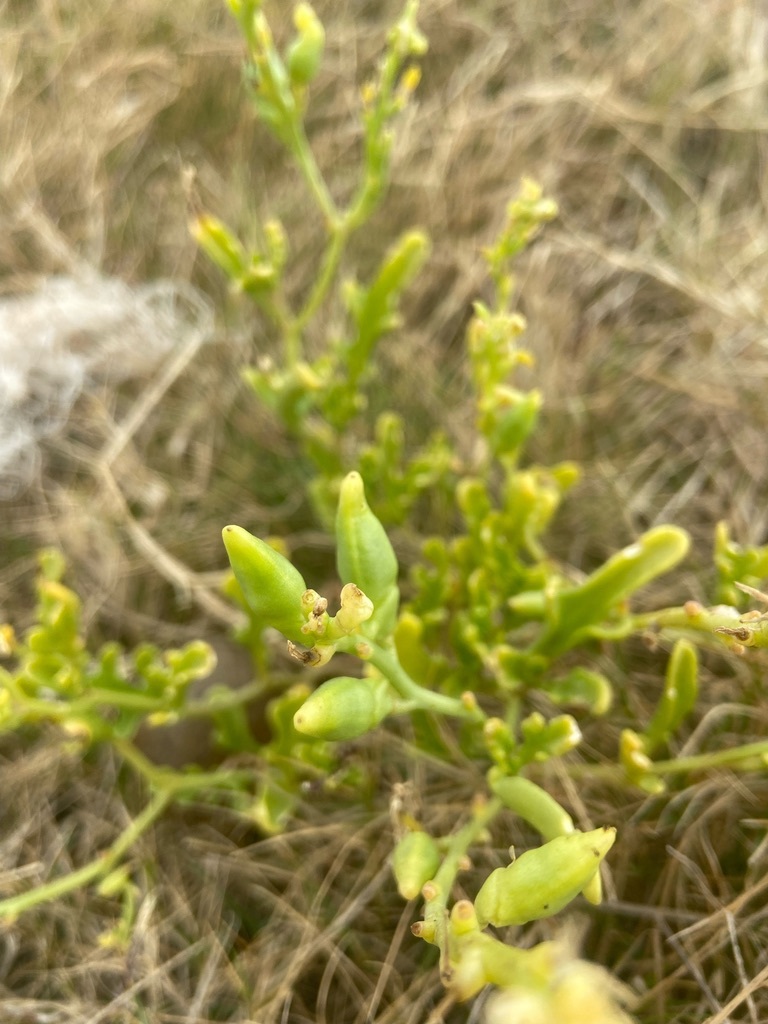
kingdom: Plantae
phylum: Tracheophyta
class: Magnoliopsida
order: Brassicales
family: Brassicaceae
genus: Cakile
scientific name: Cakile maritima
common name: Sea rocket
